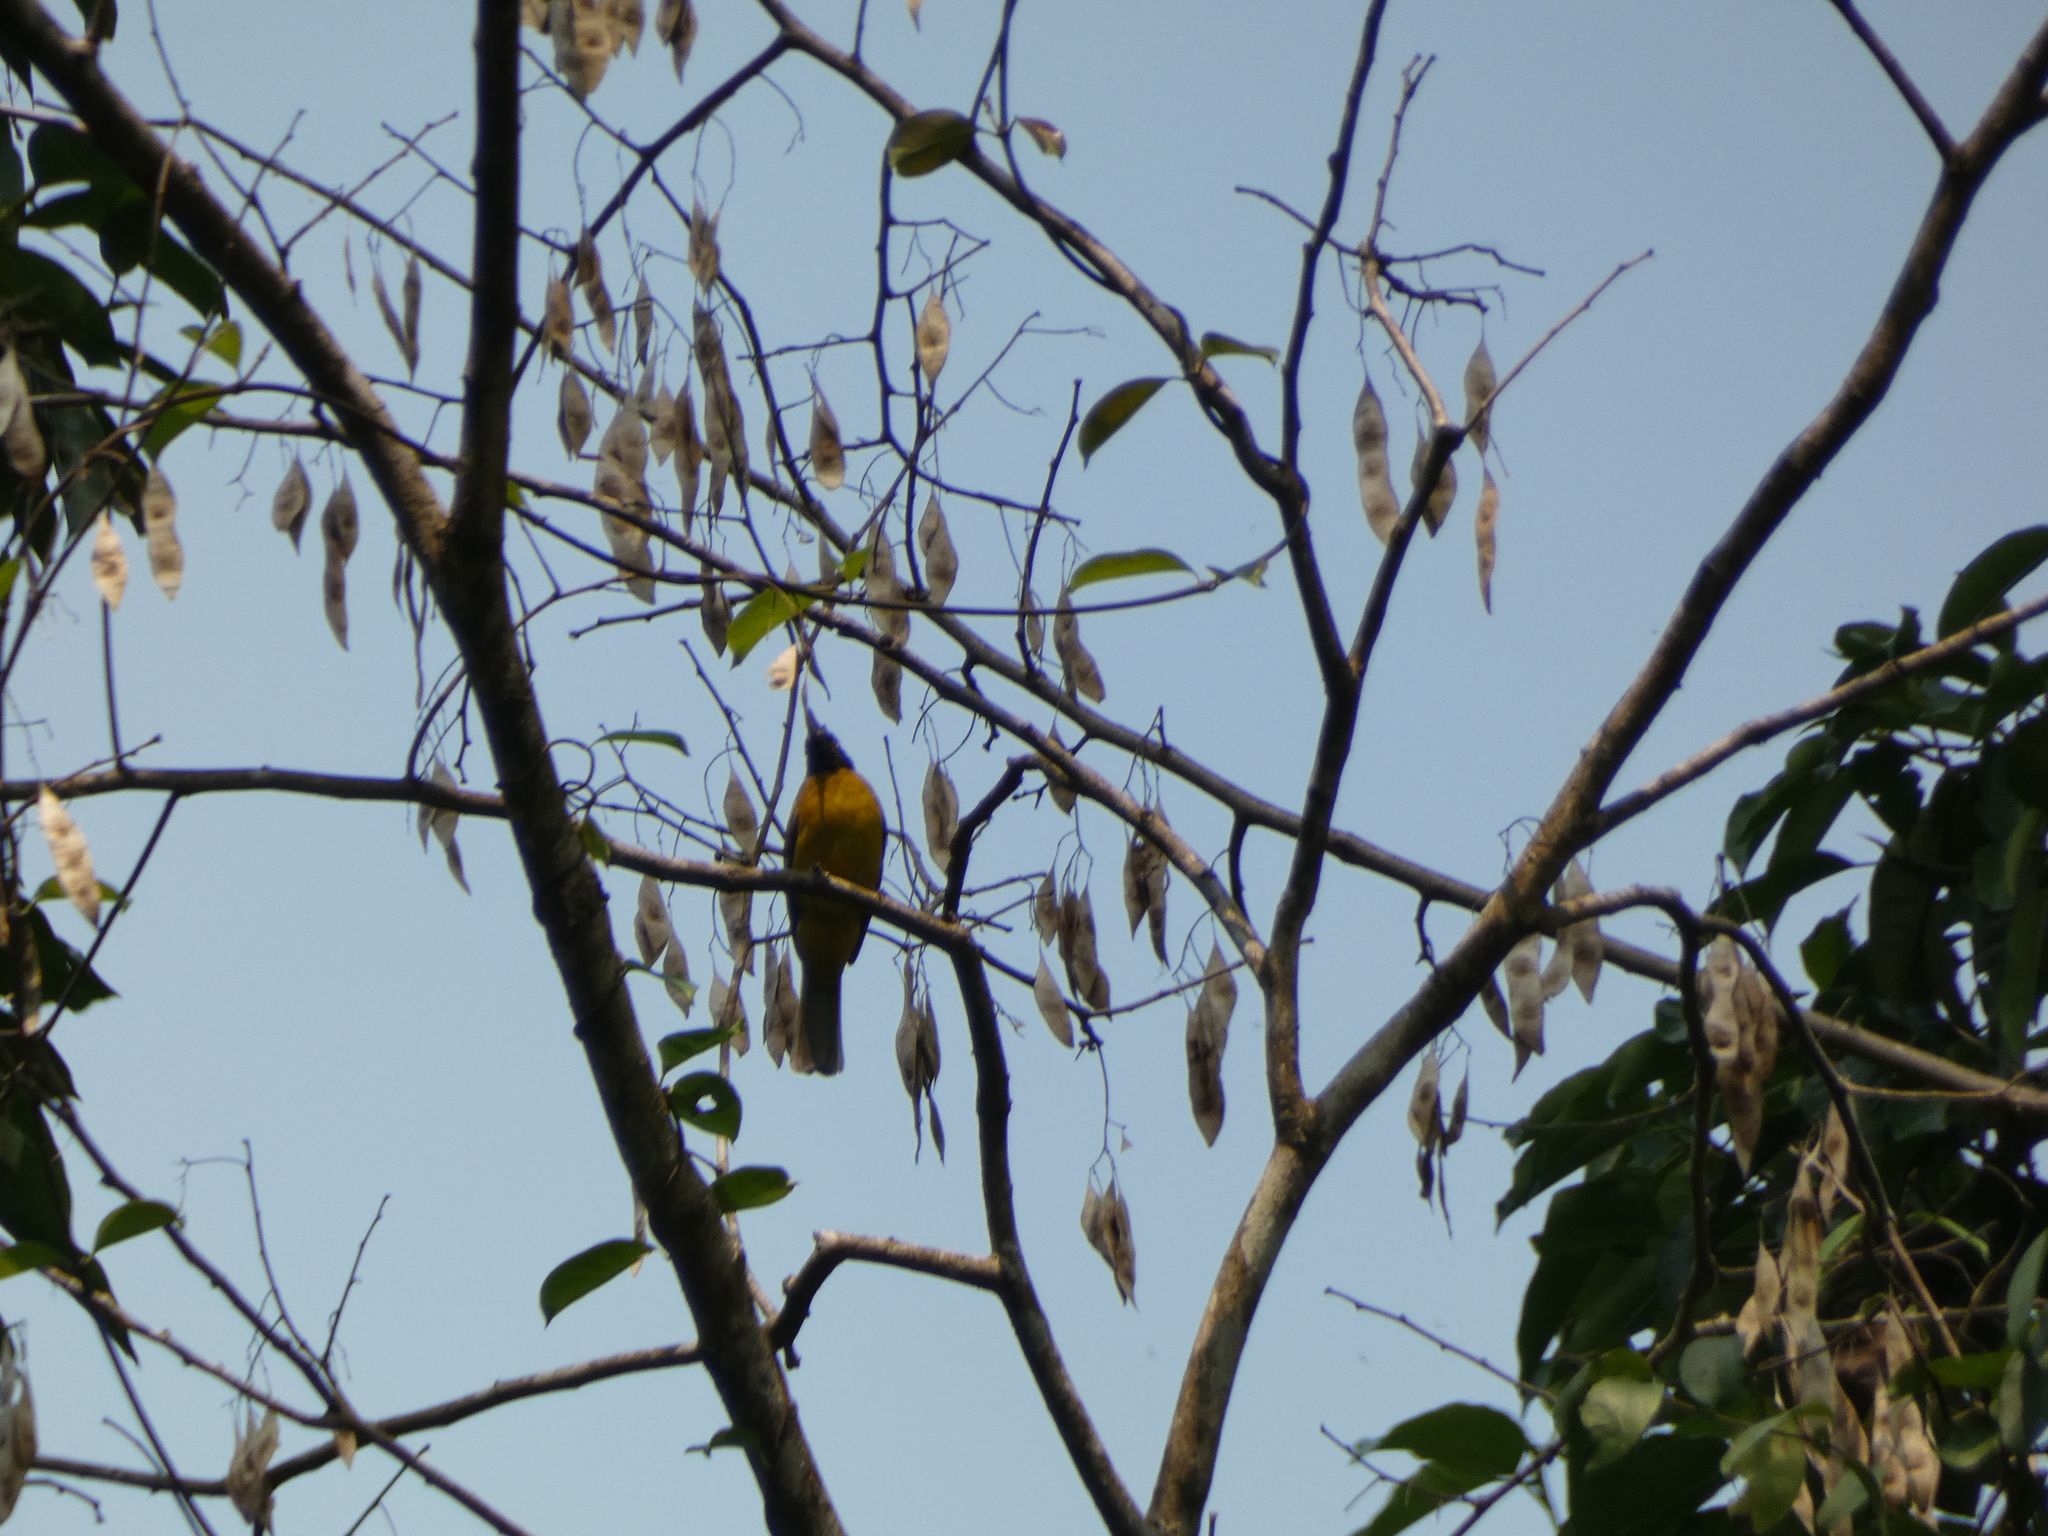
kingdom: Animalia
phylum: Chordata
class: Aves
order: Passeriformes
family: Pycnonotidae
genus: Pycnonotus
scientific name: Pycnonotus flaviventris
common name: Black-crested bulbul
